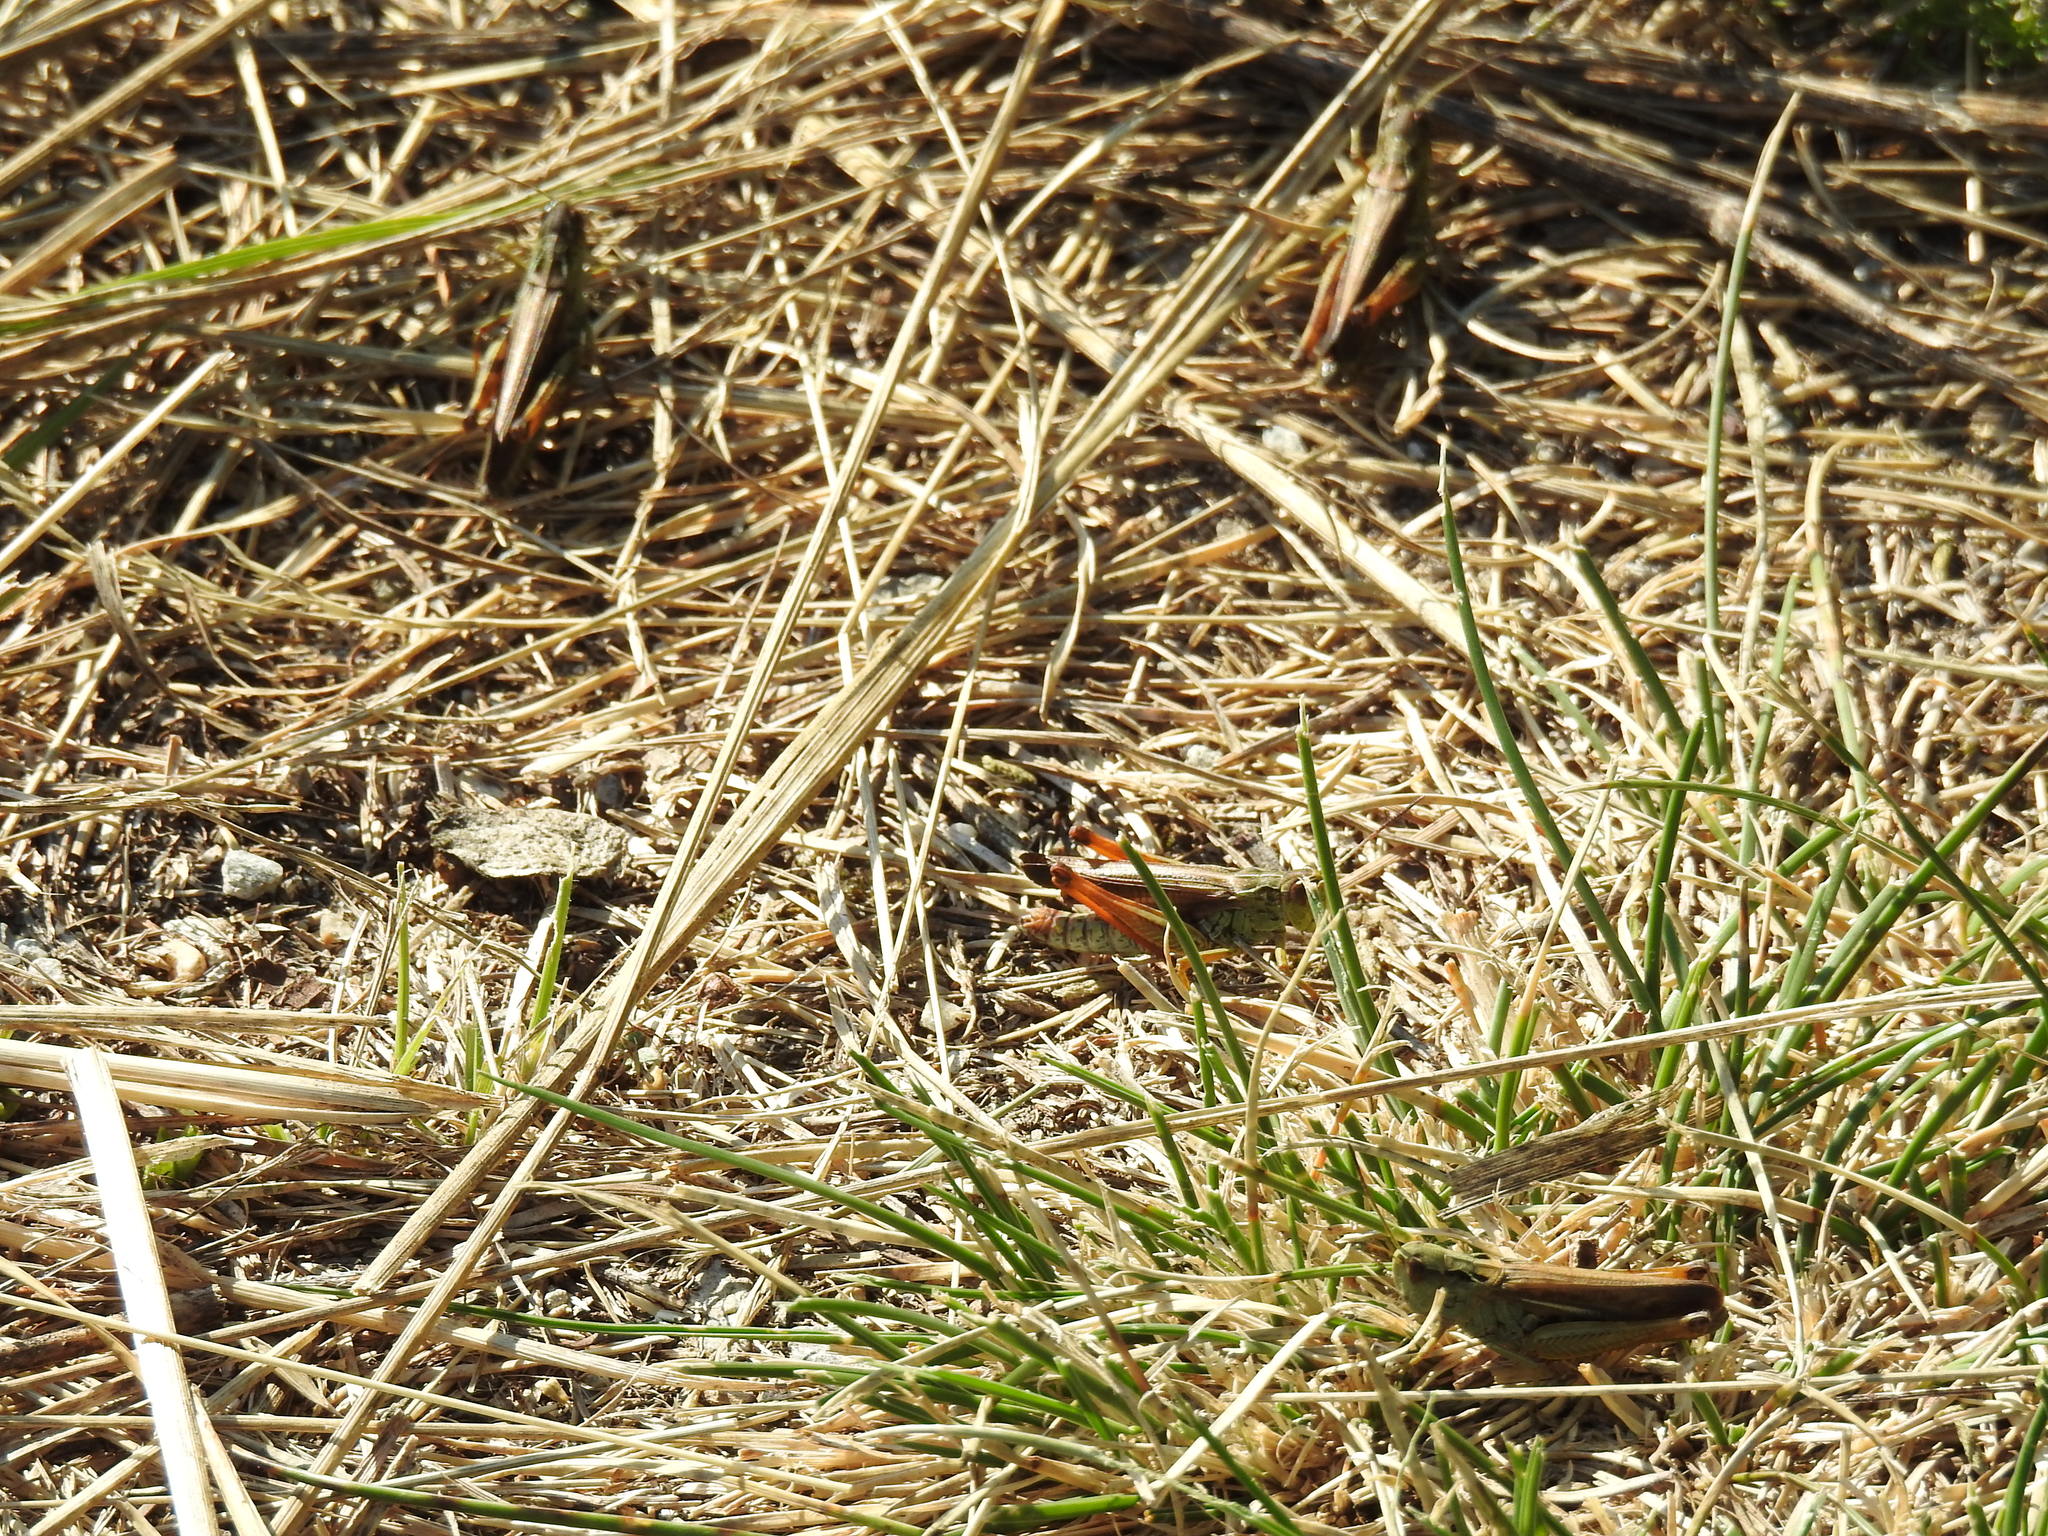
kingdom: Animalia
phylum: Arthropoda
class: Insecta
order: Orthoptera
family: Acrididae
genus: Stauroderus
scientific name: Stauroderus scalaris
